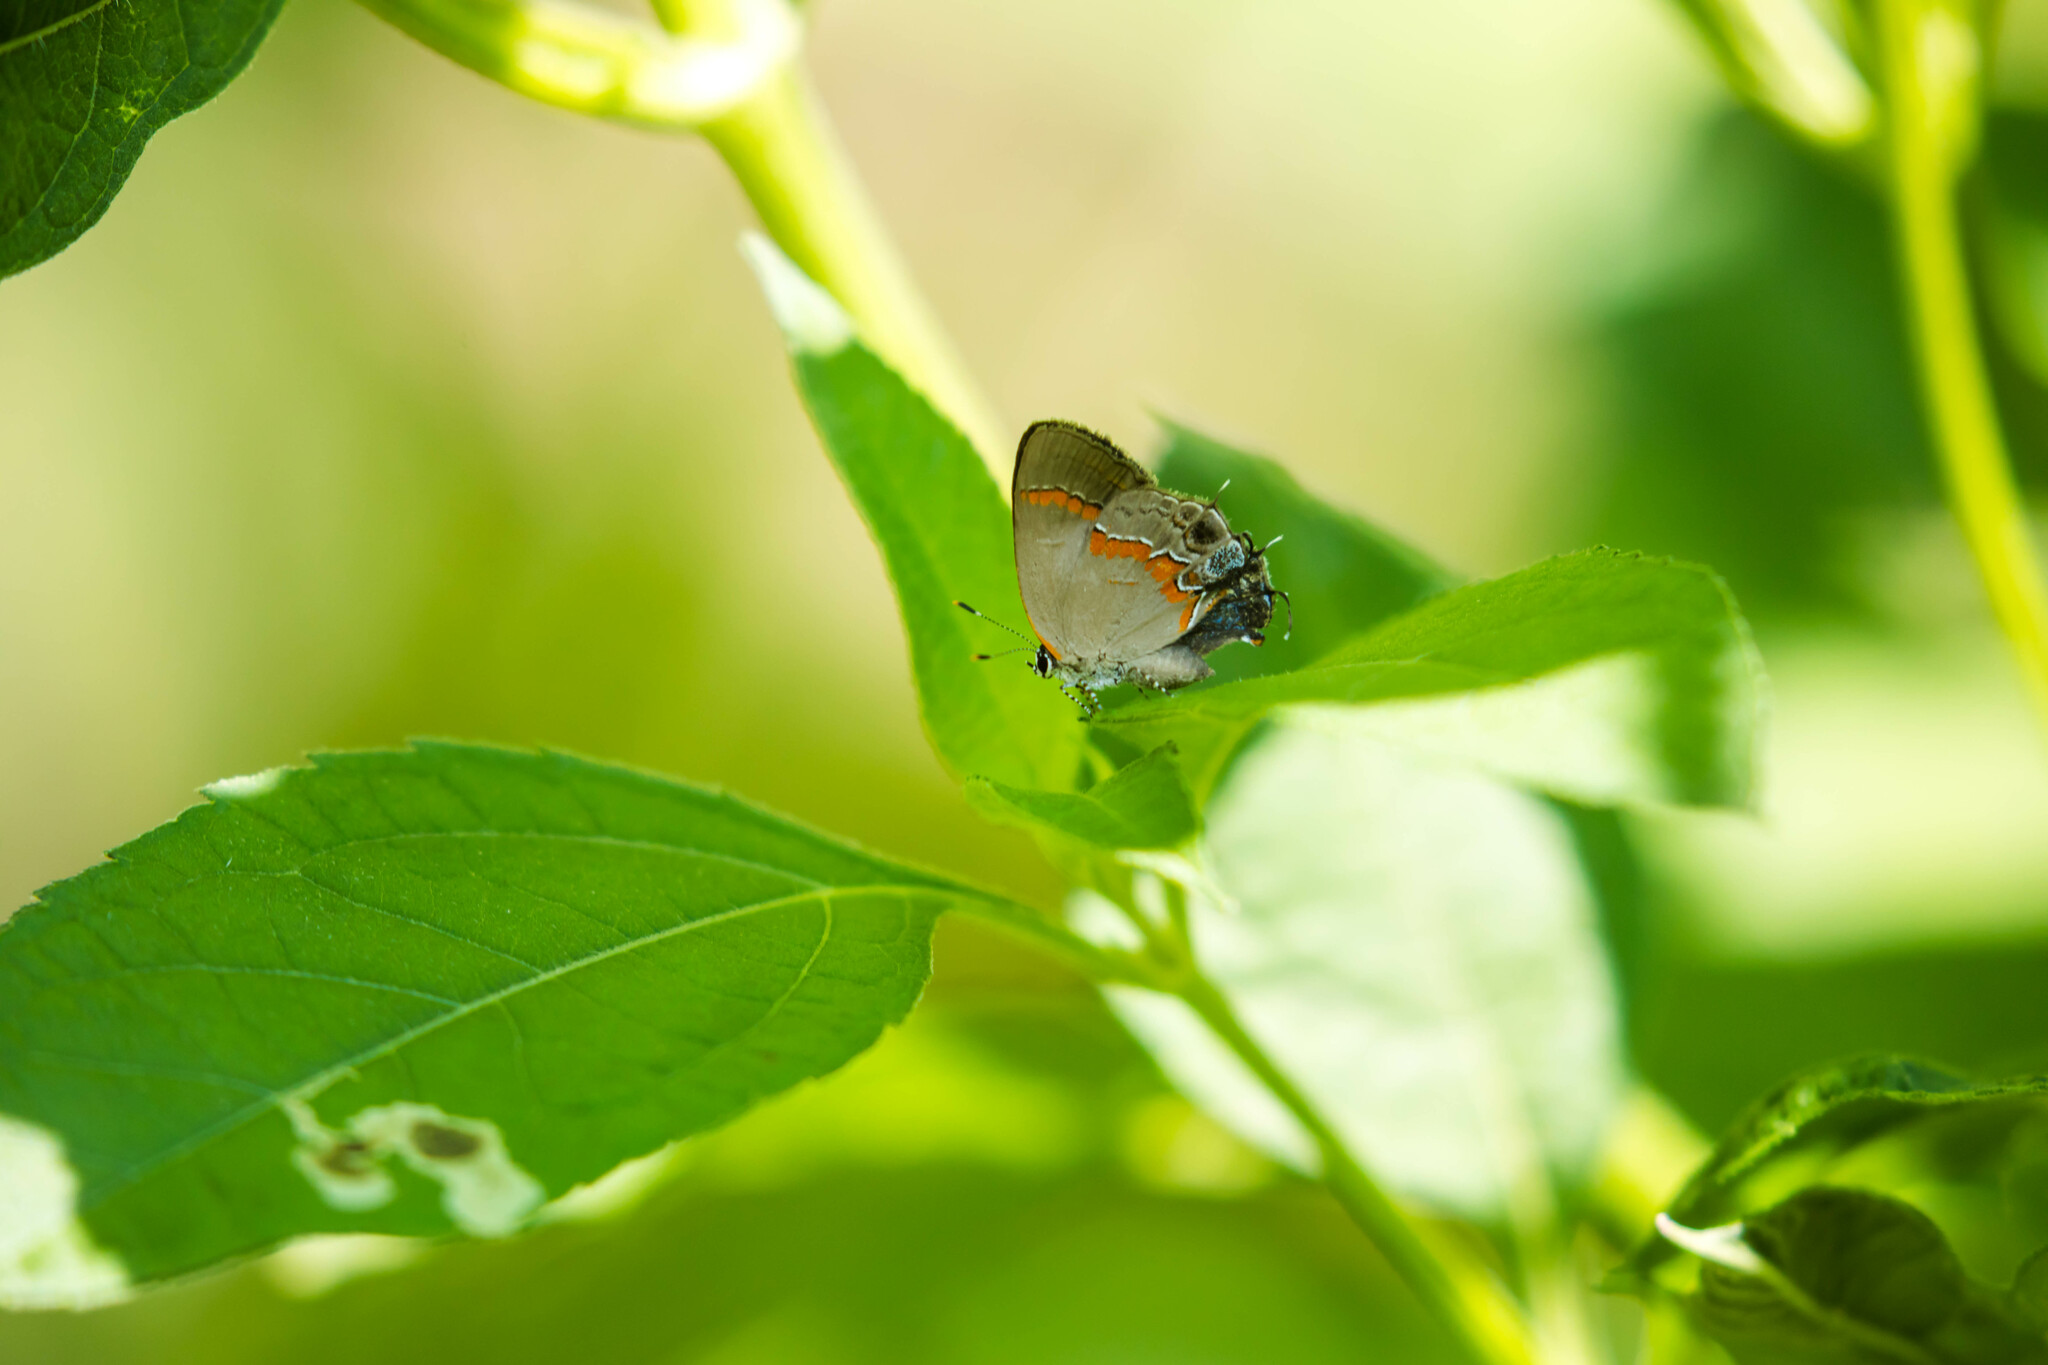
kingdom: Animalia
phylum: Arthropoda
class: Insecta
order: Lepidoptera
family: Lycaenidae
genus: Calycopis
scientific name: Calycopis cecrops
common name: Red-banded hairstreak
